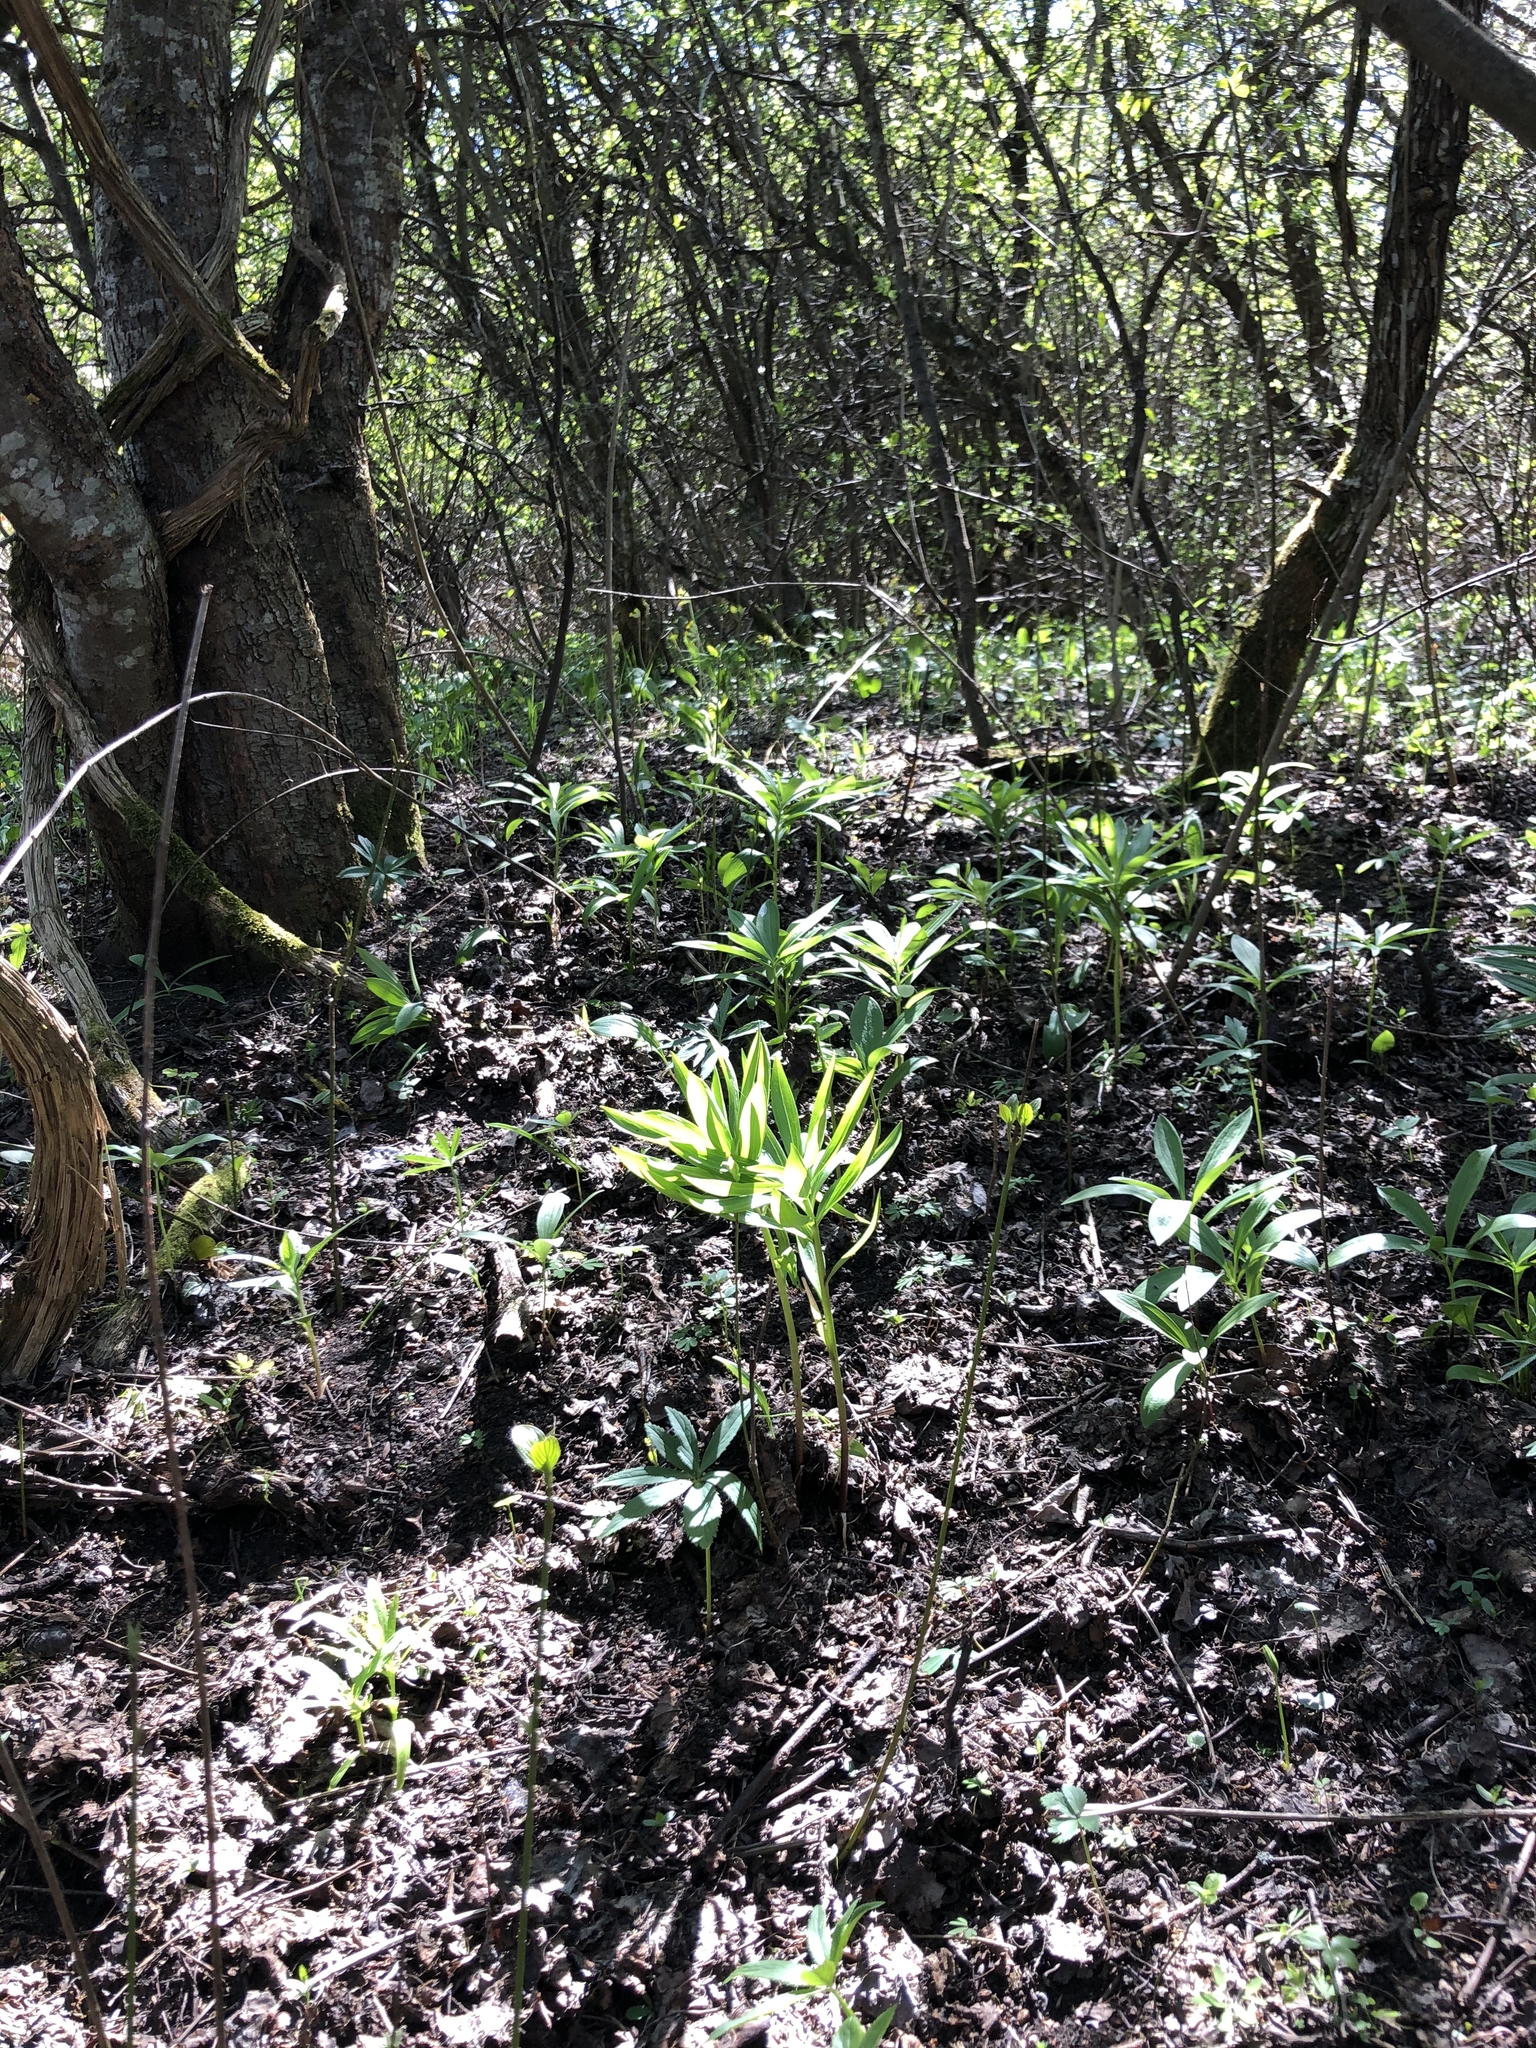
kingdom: Plantae
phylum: Tracheophyta
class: Liliopsida
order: Liliales
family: Liliaceae
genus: Lilium
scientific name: Lilium martagon
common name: Martagon lily
